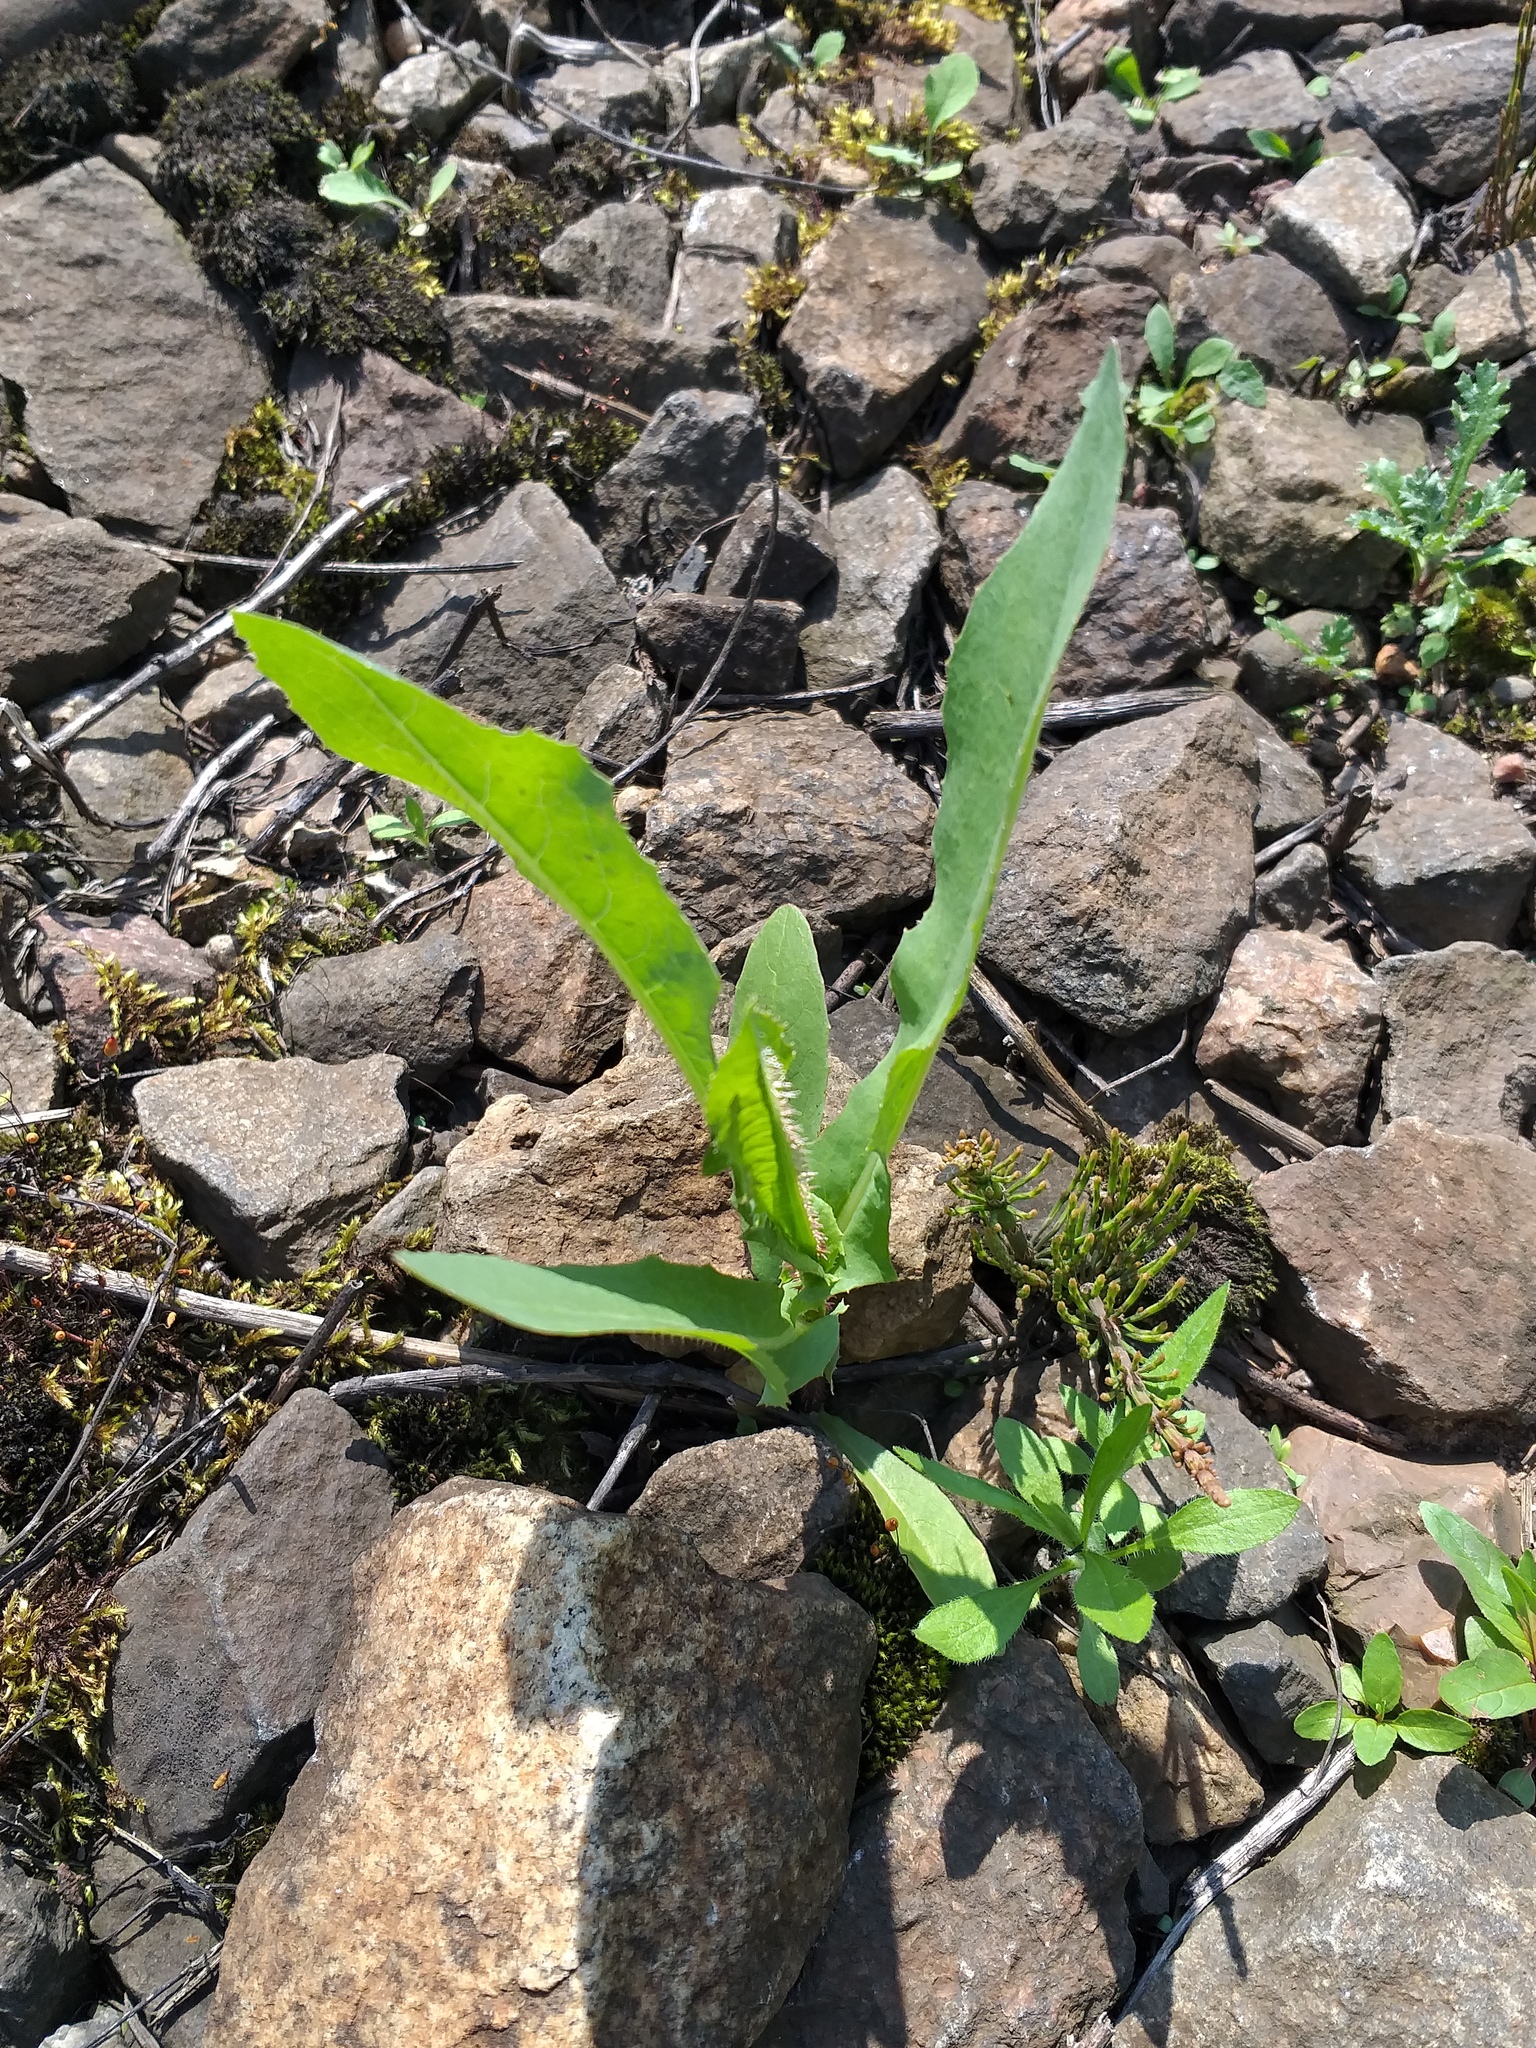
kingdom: Plantae
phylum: Tracheophyta
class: Magnoliopsida
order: Asterales
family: Asteraceae
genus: Lactuca
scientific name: Lactuca serriola
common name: Prickly lettuce
